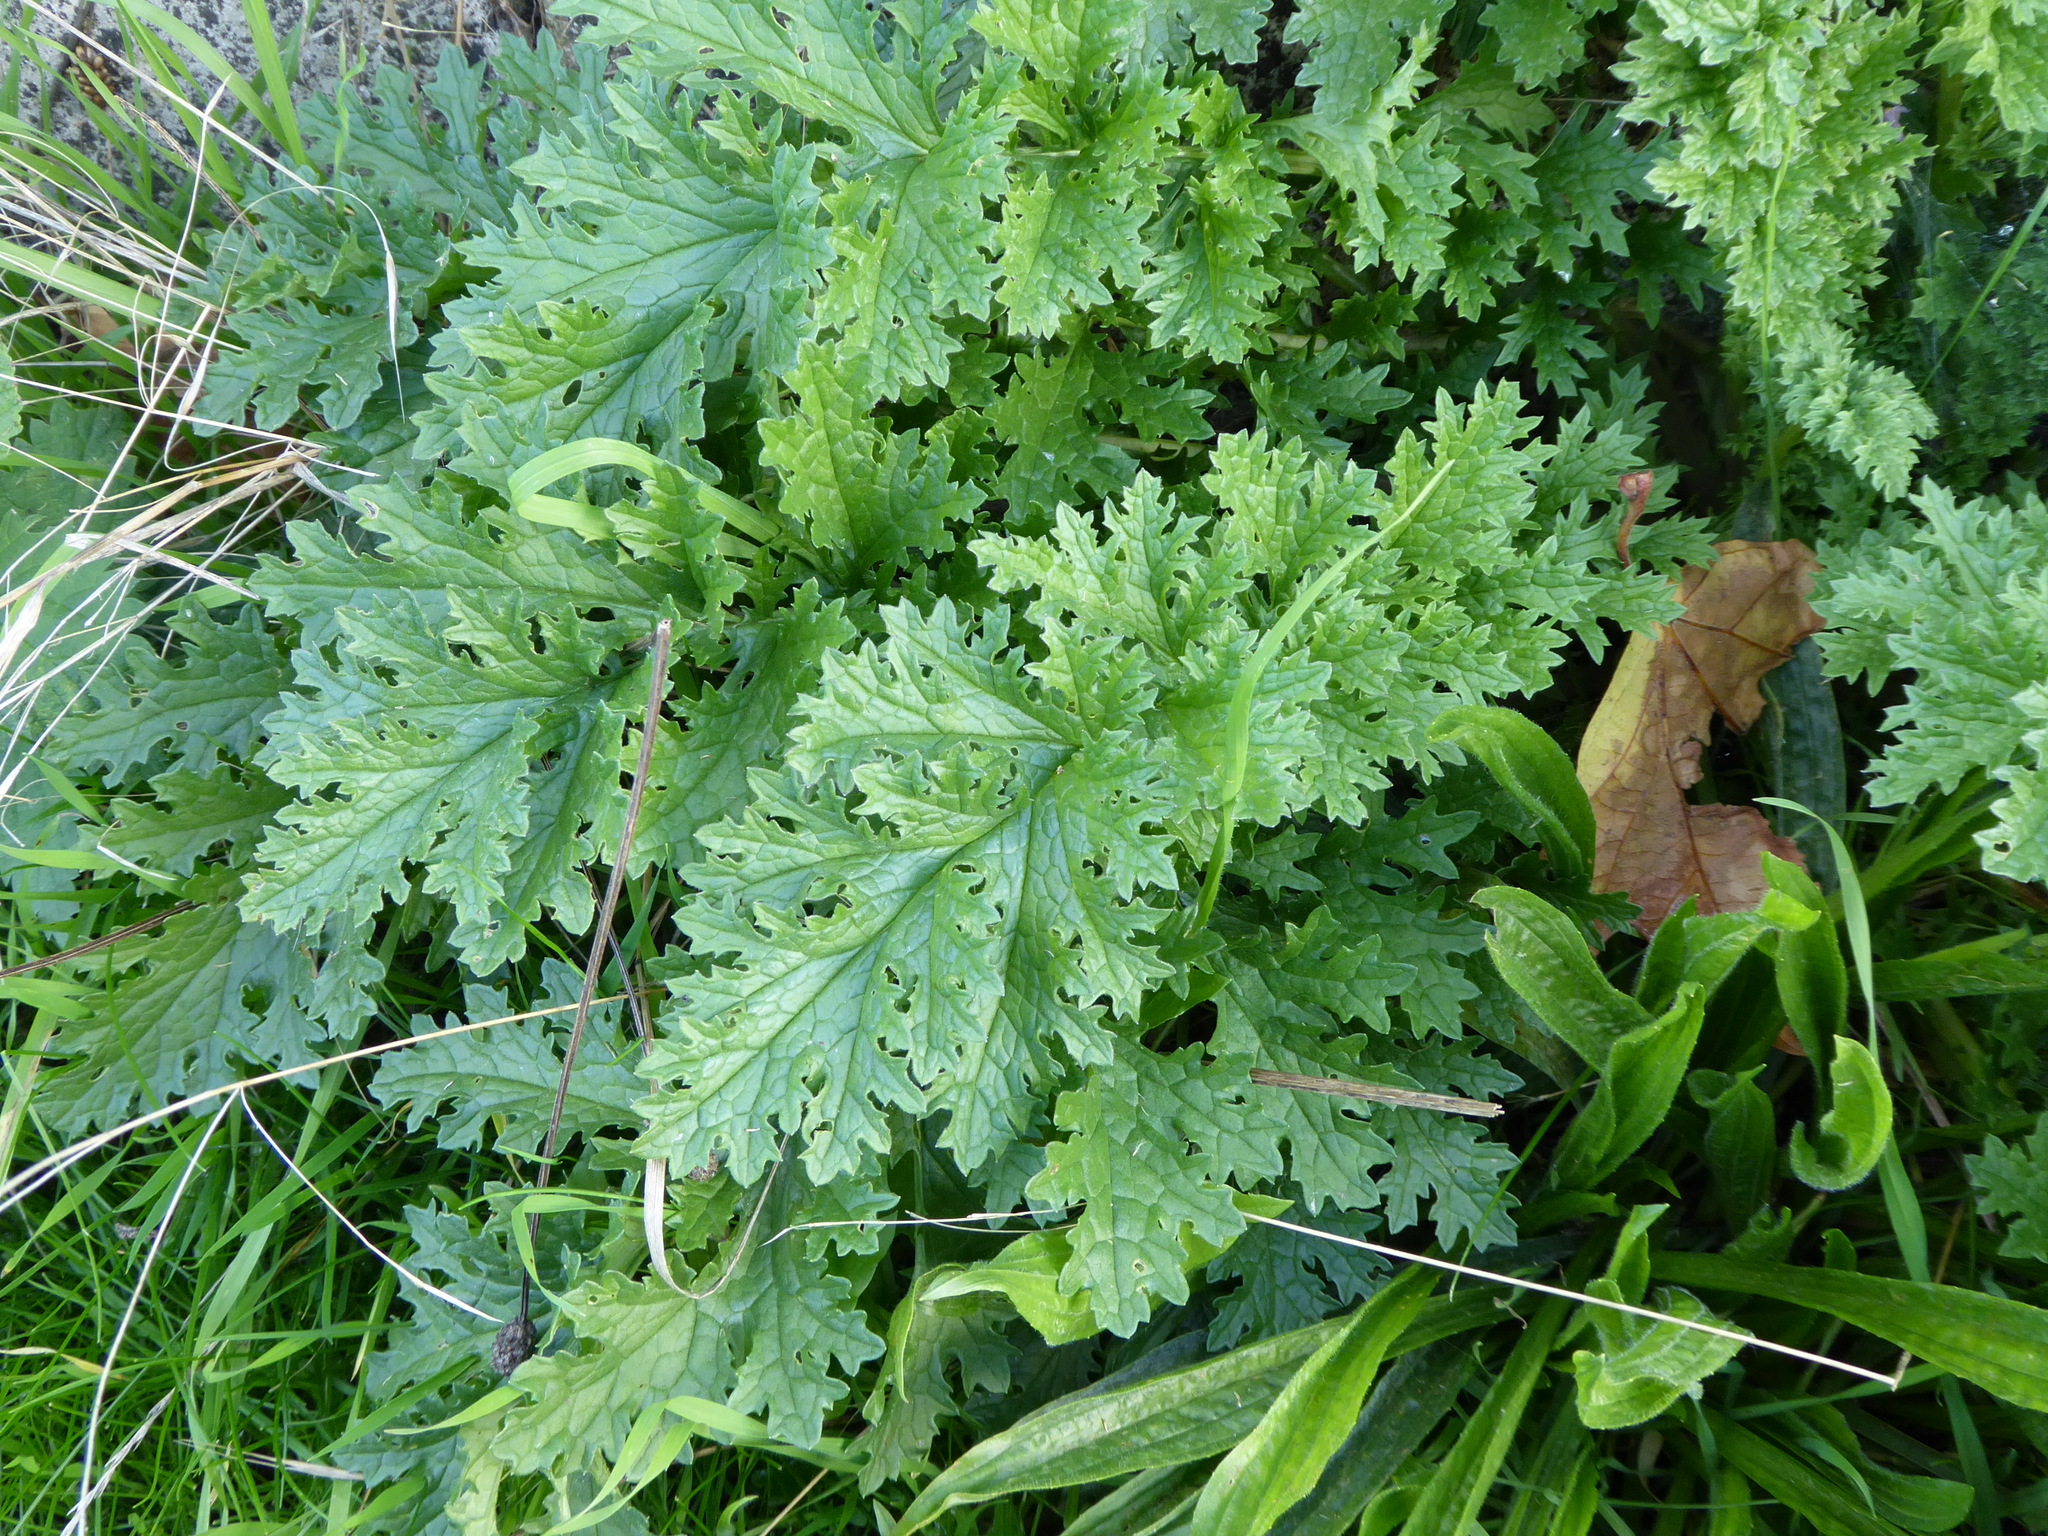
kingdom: Plantae
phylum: Tracheophyta
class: Magnoliopsida
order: Asterales
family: Asteraceae
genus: Jacobaea
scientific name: Jacobaea vulgaris
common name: Stinking willie
